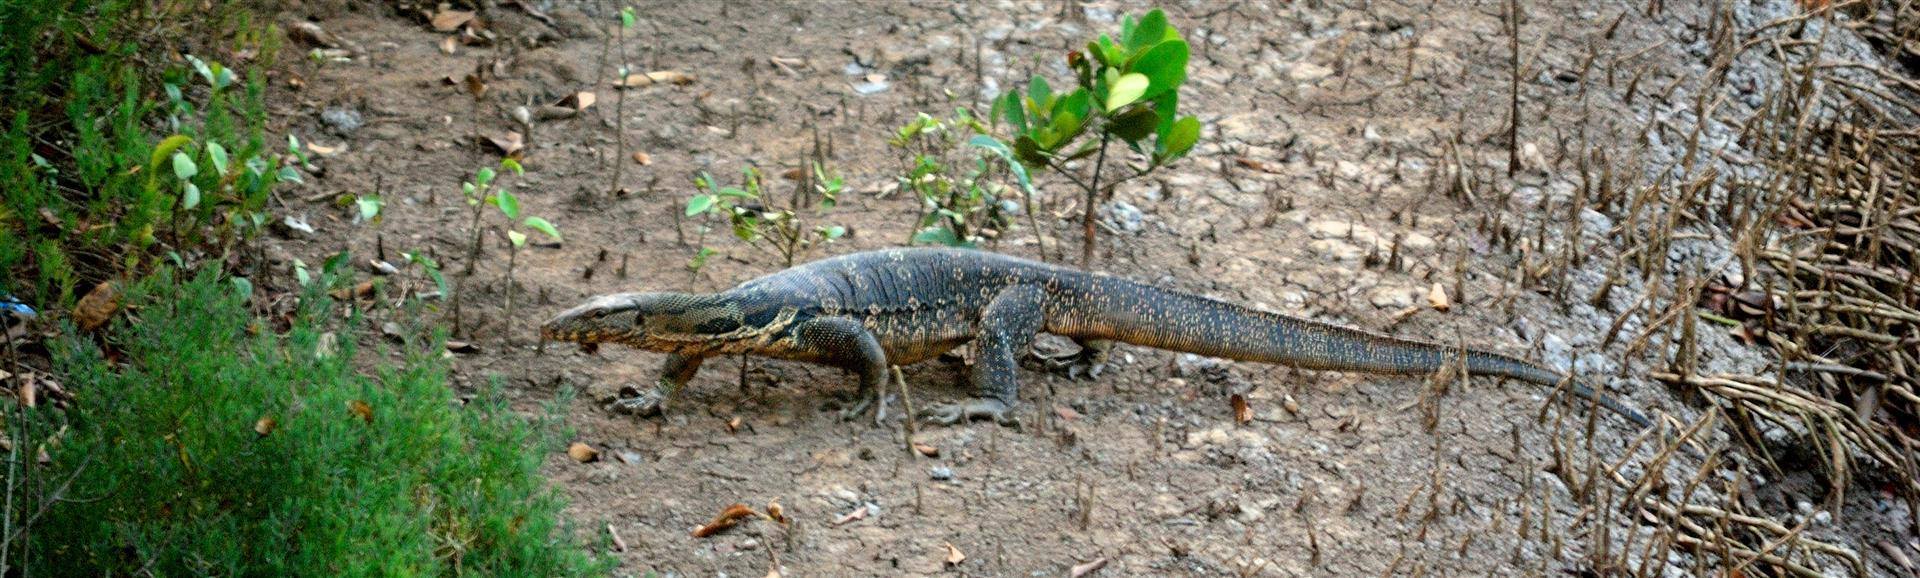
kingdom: Animalia
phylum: Chordata
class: Squamata
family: Varanidae
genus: Varanus
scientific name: Varanus salvator
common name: Common water monitor
